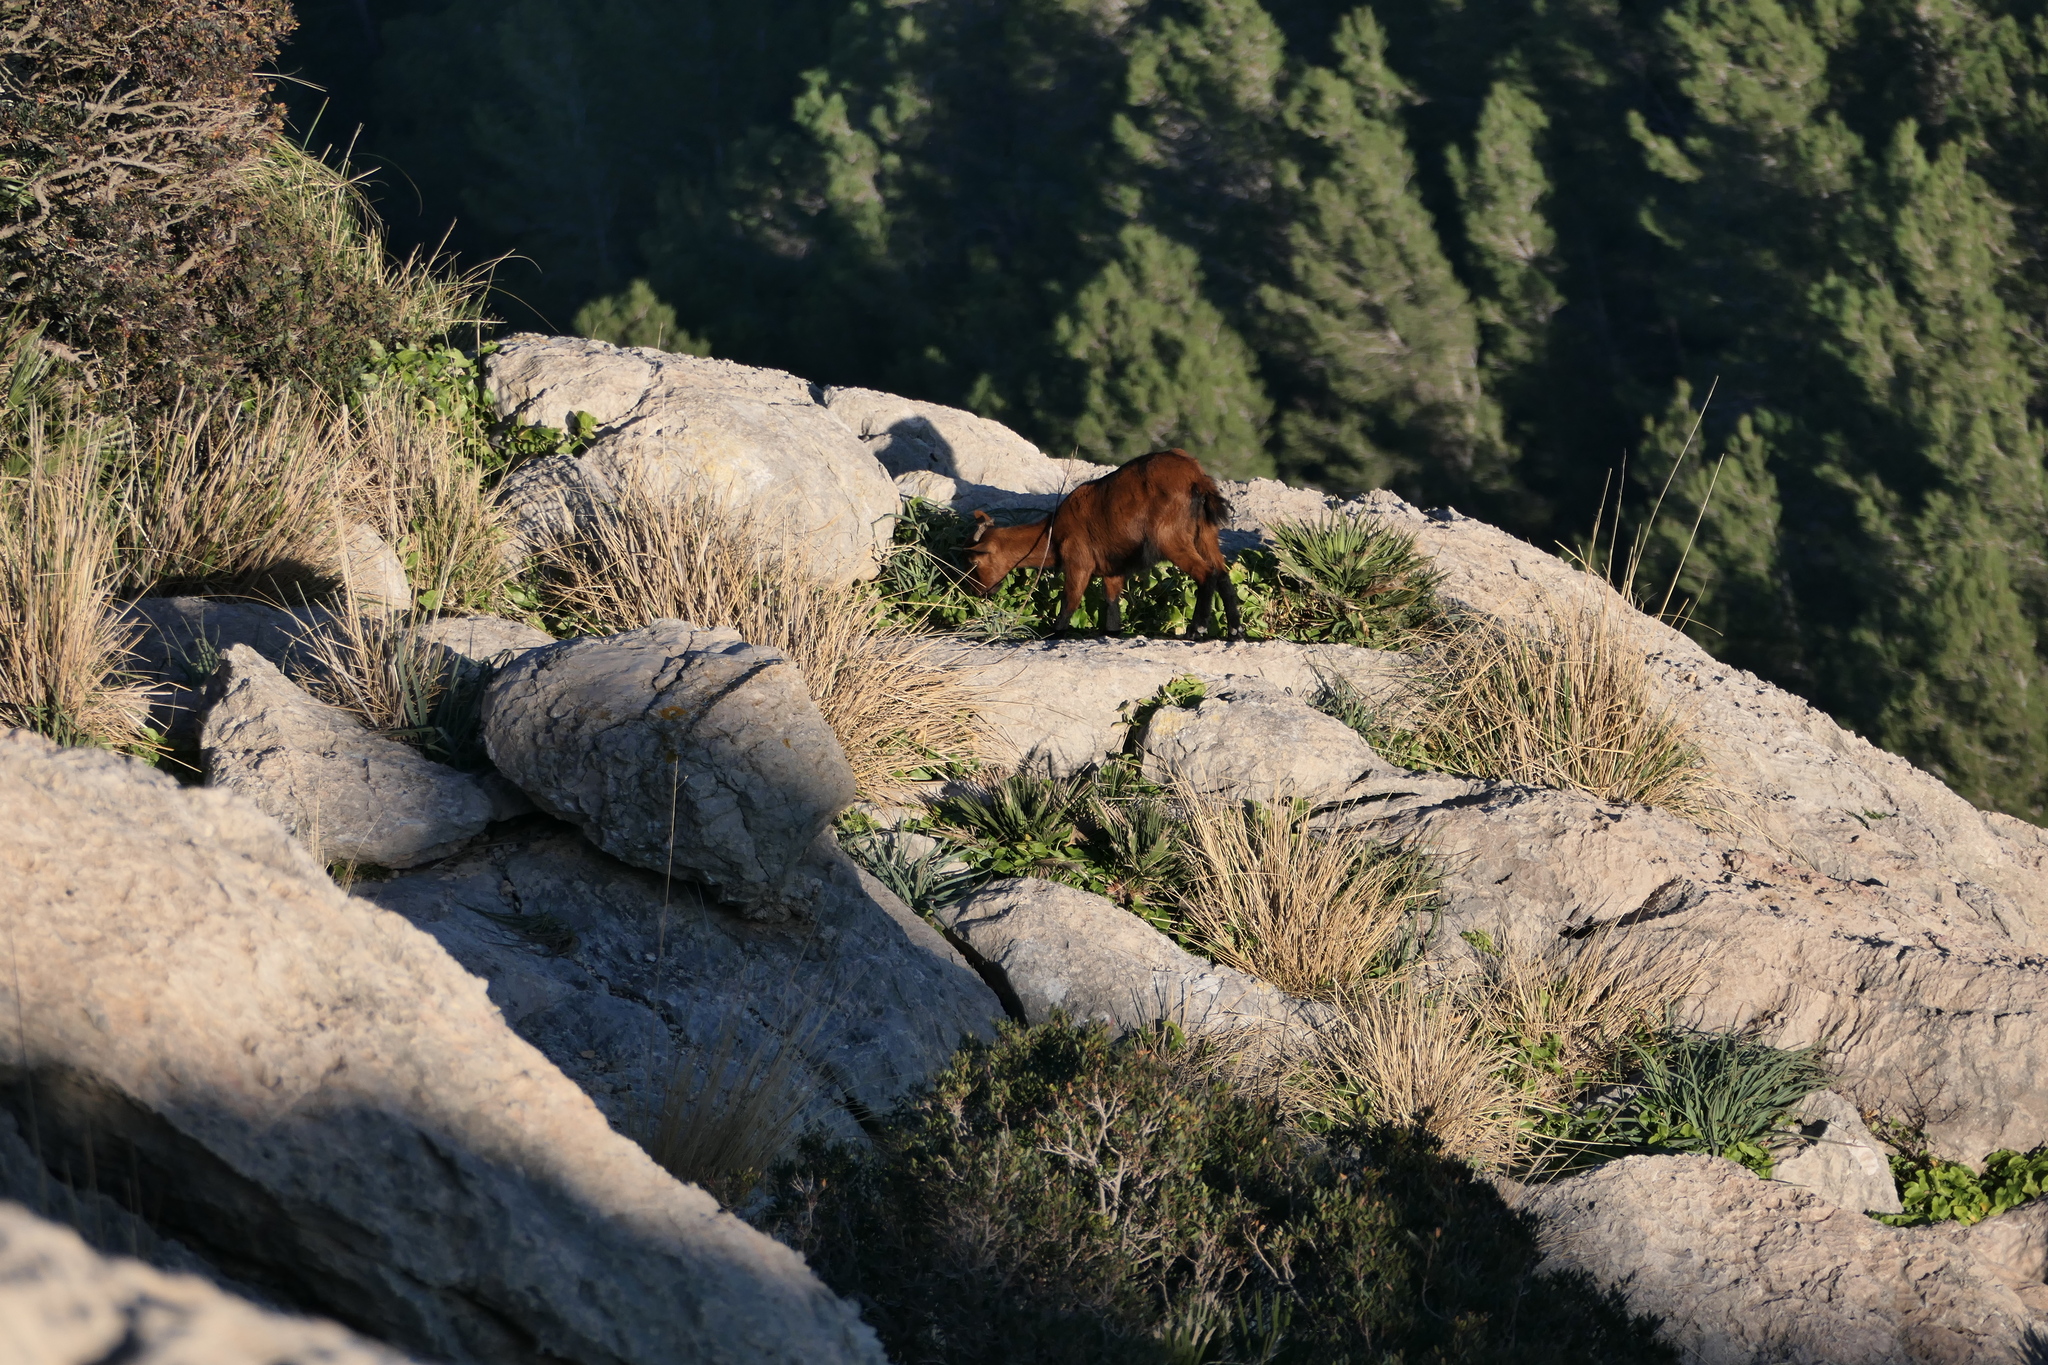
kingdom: Animalia
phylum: Chordata
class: Mammalia
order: Artiodactyla
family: Bovidae
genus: Capra
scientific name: Capra hircus
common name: Domestic goat
